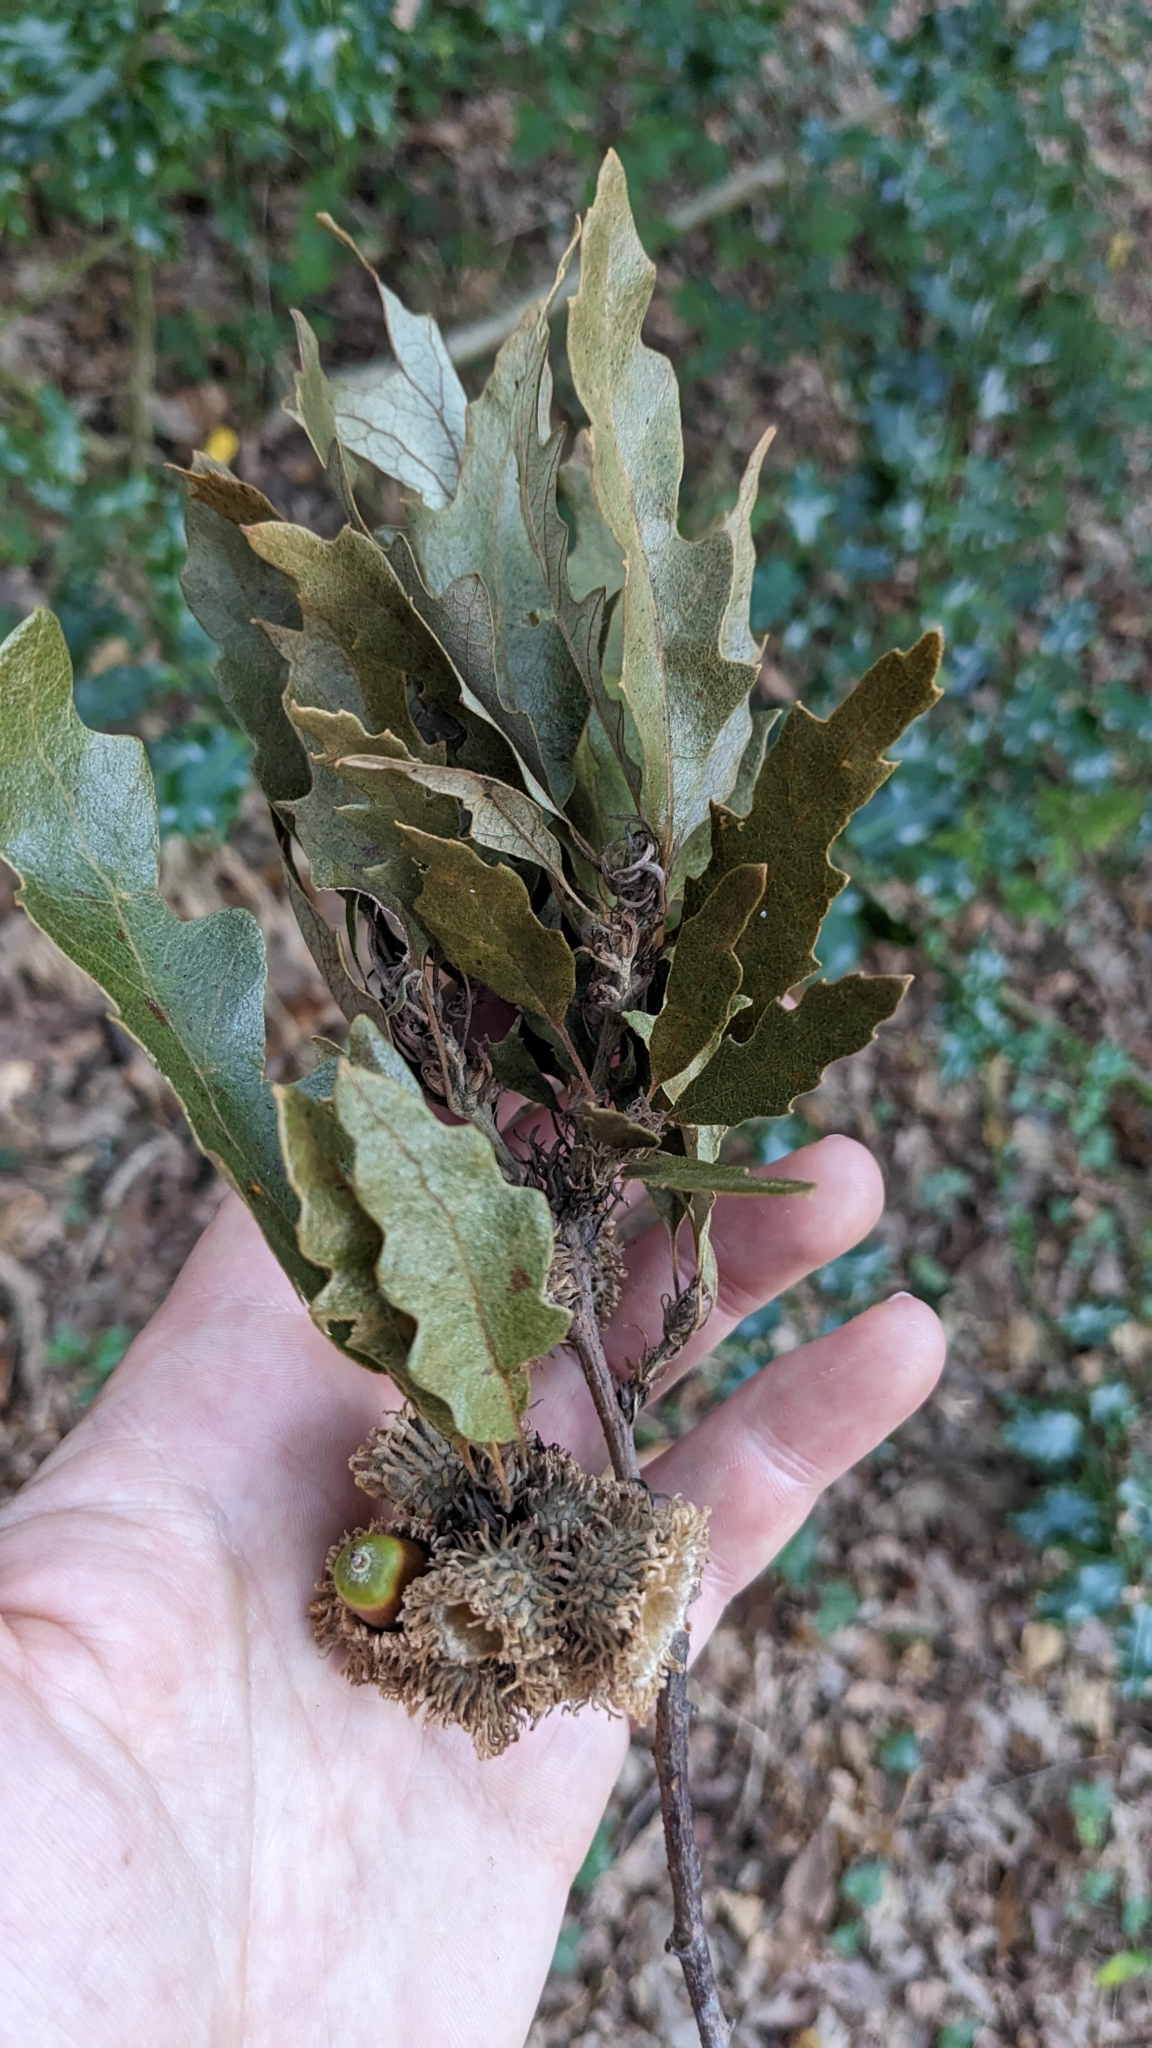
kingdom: Plantae
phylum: Tracheophyta
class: Magnoliopsida
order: Fagales
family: Fagaceae
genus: Quercus
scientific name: Quercus cerris
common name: Turkey oak
